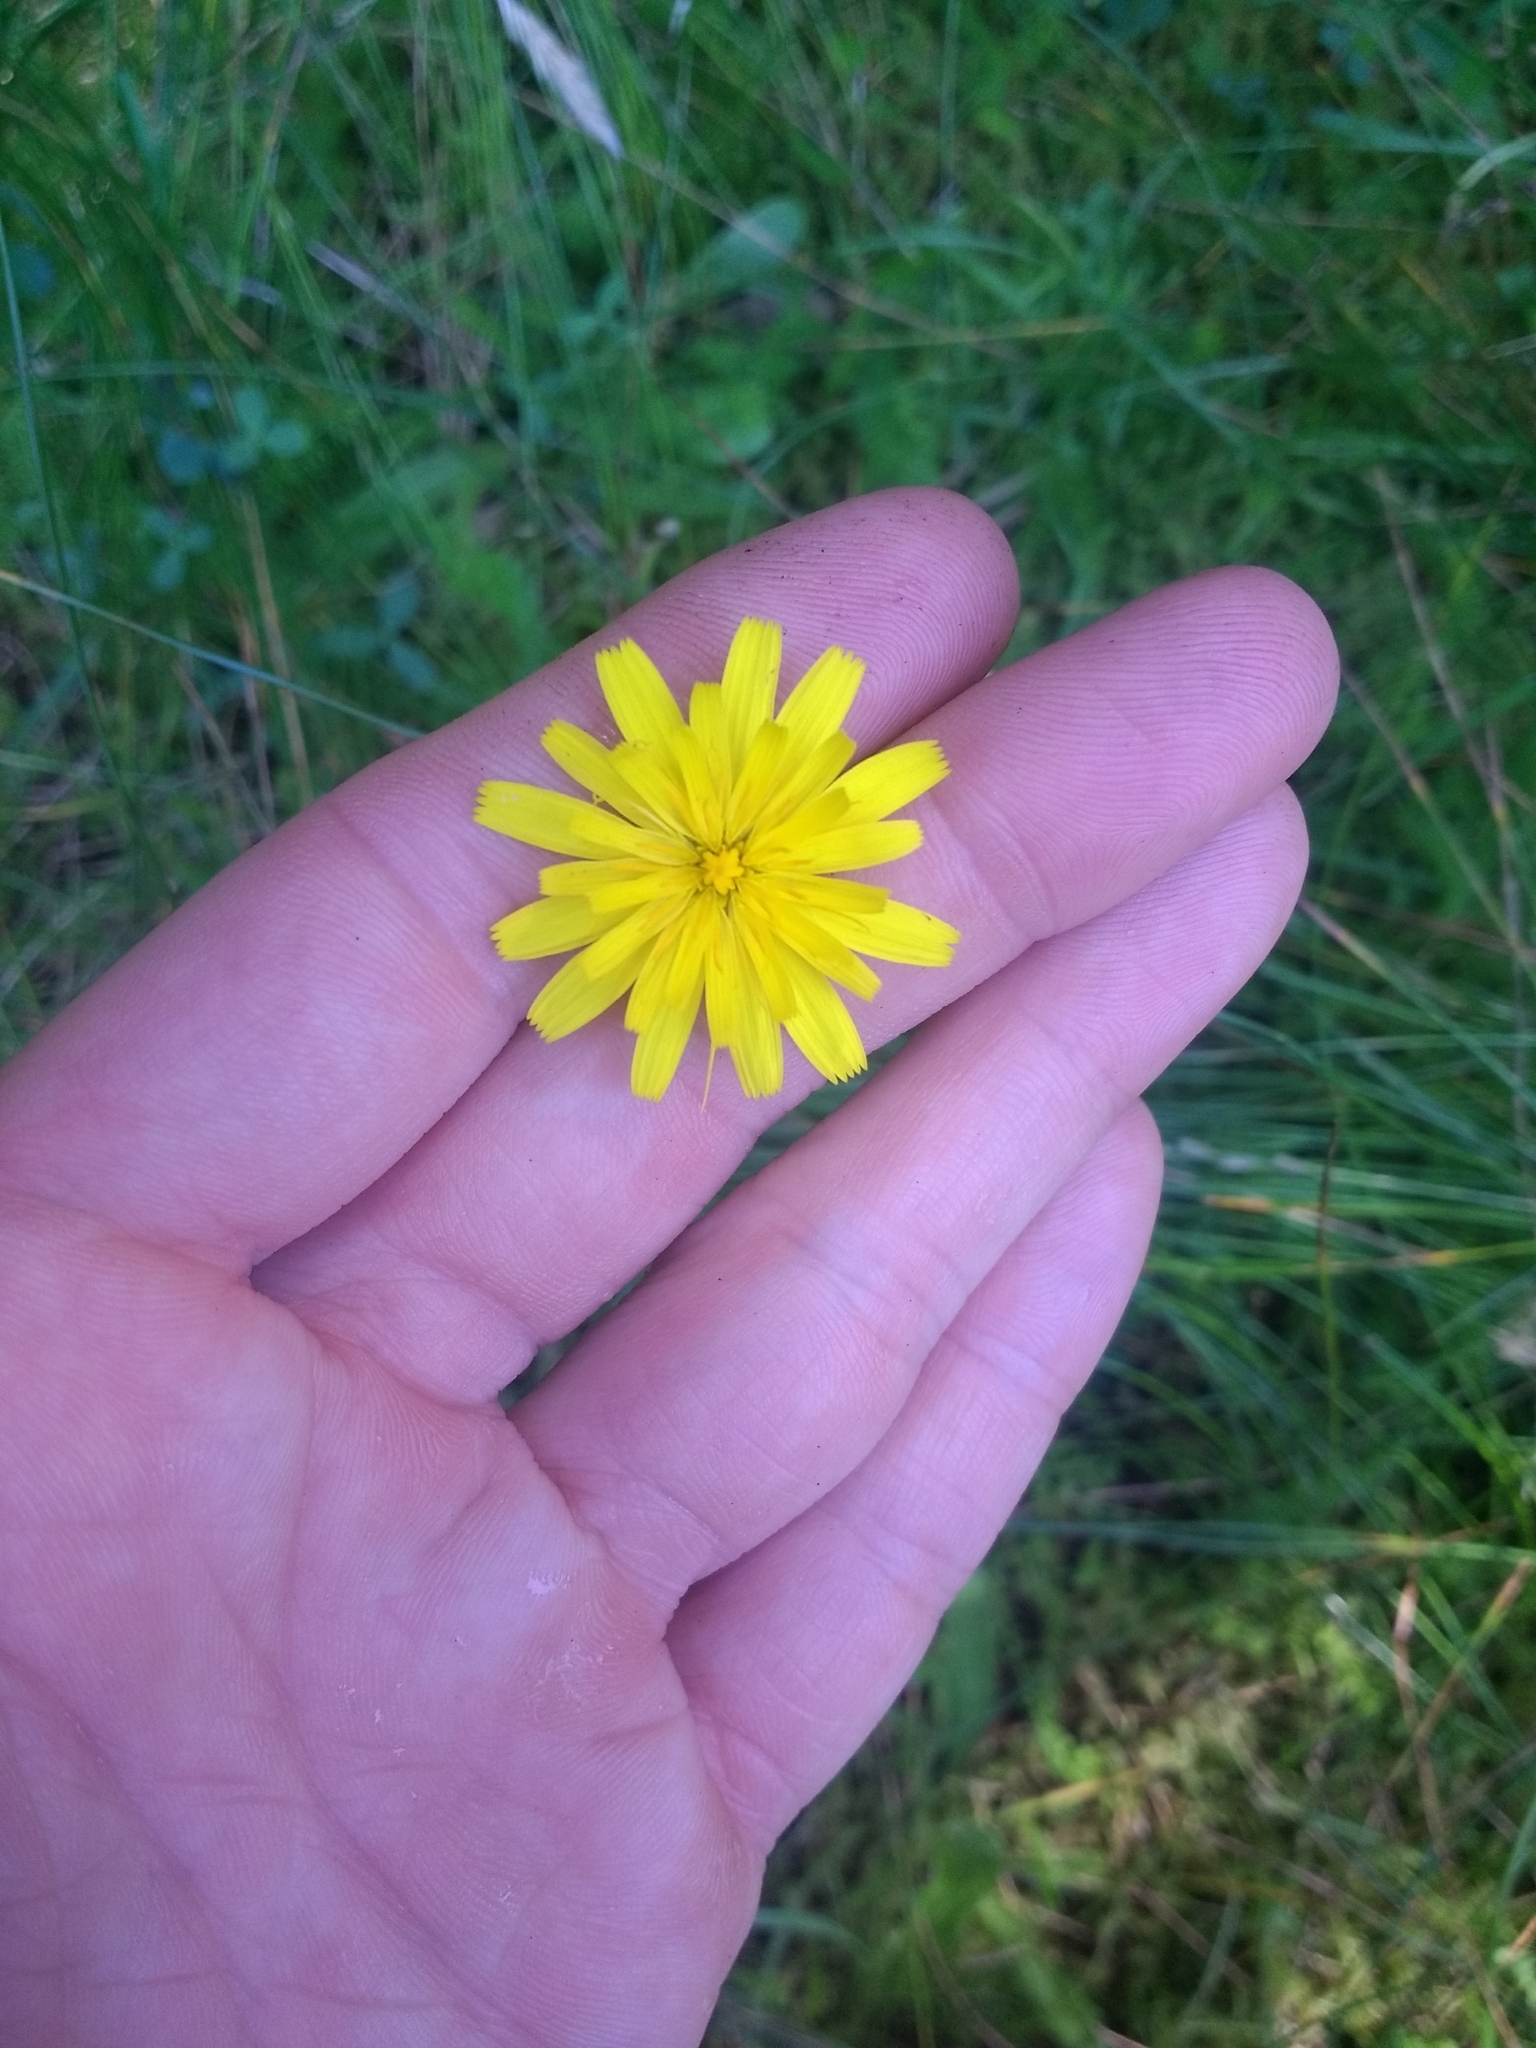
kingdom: Plantae
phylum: Tracheophyta
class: Magnoliopsida
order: Asterales
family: Asteraceae
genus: Hypochaeris
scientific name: Hypochaeris radicata
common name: Flatweed
